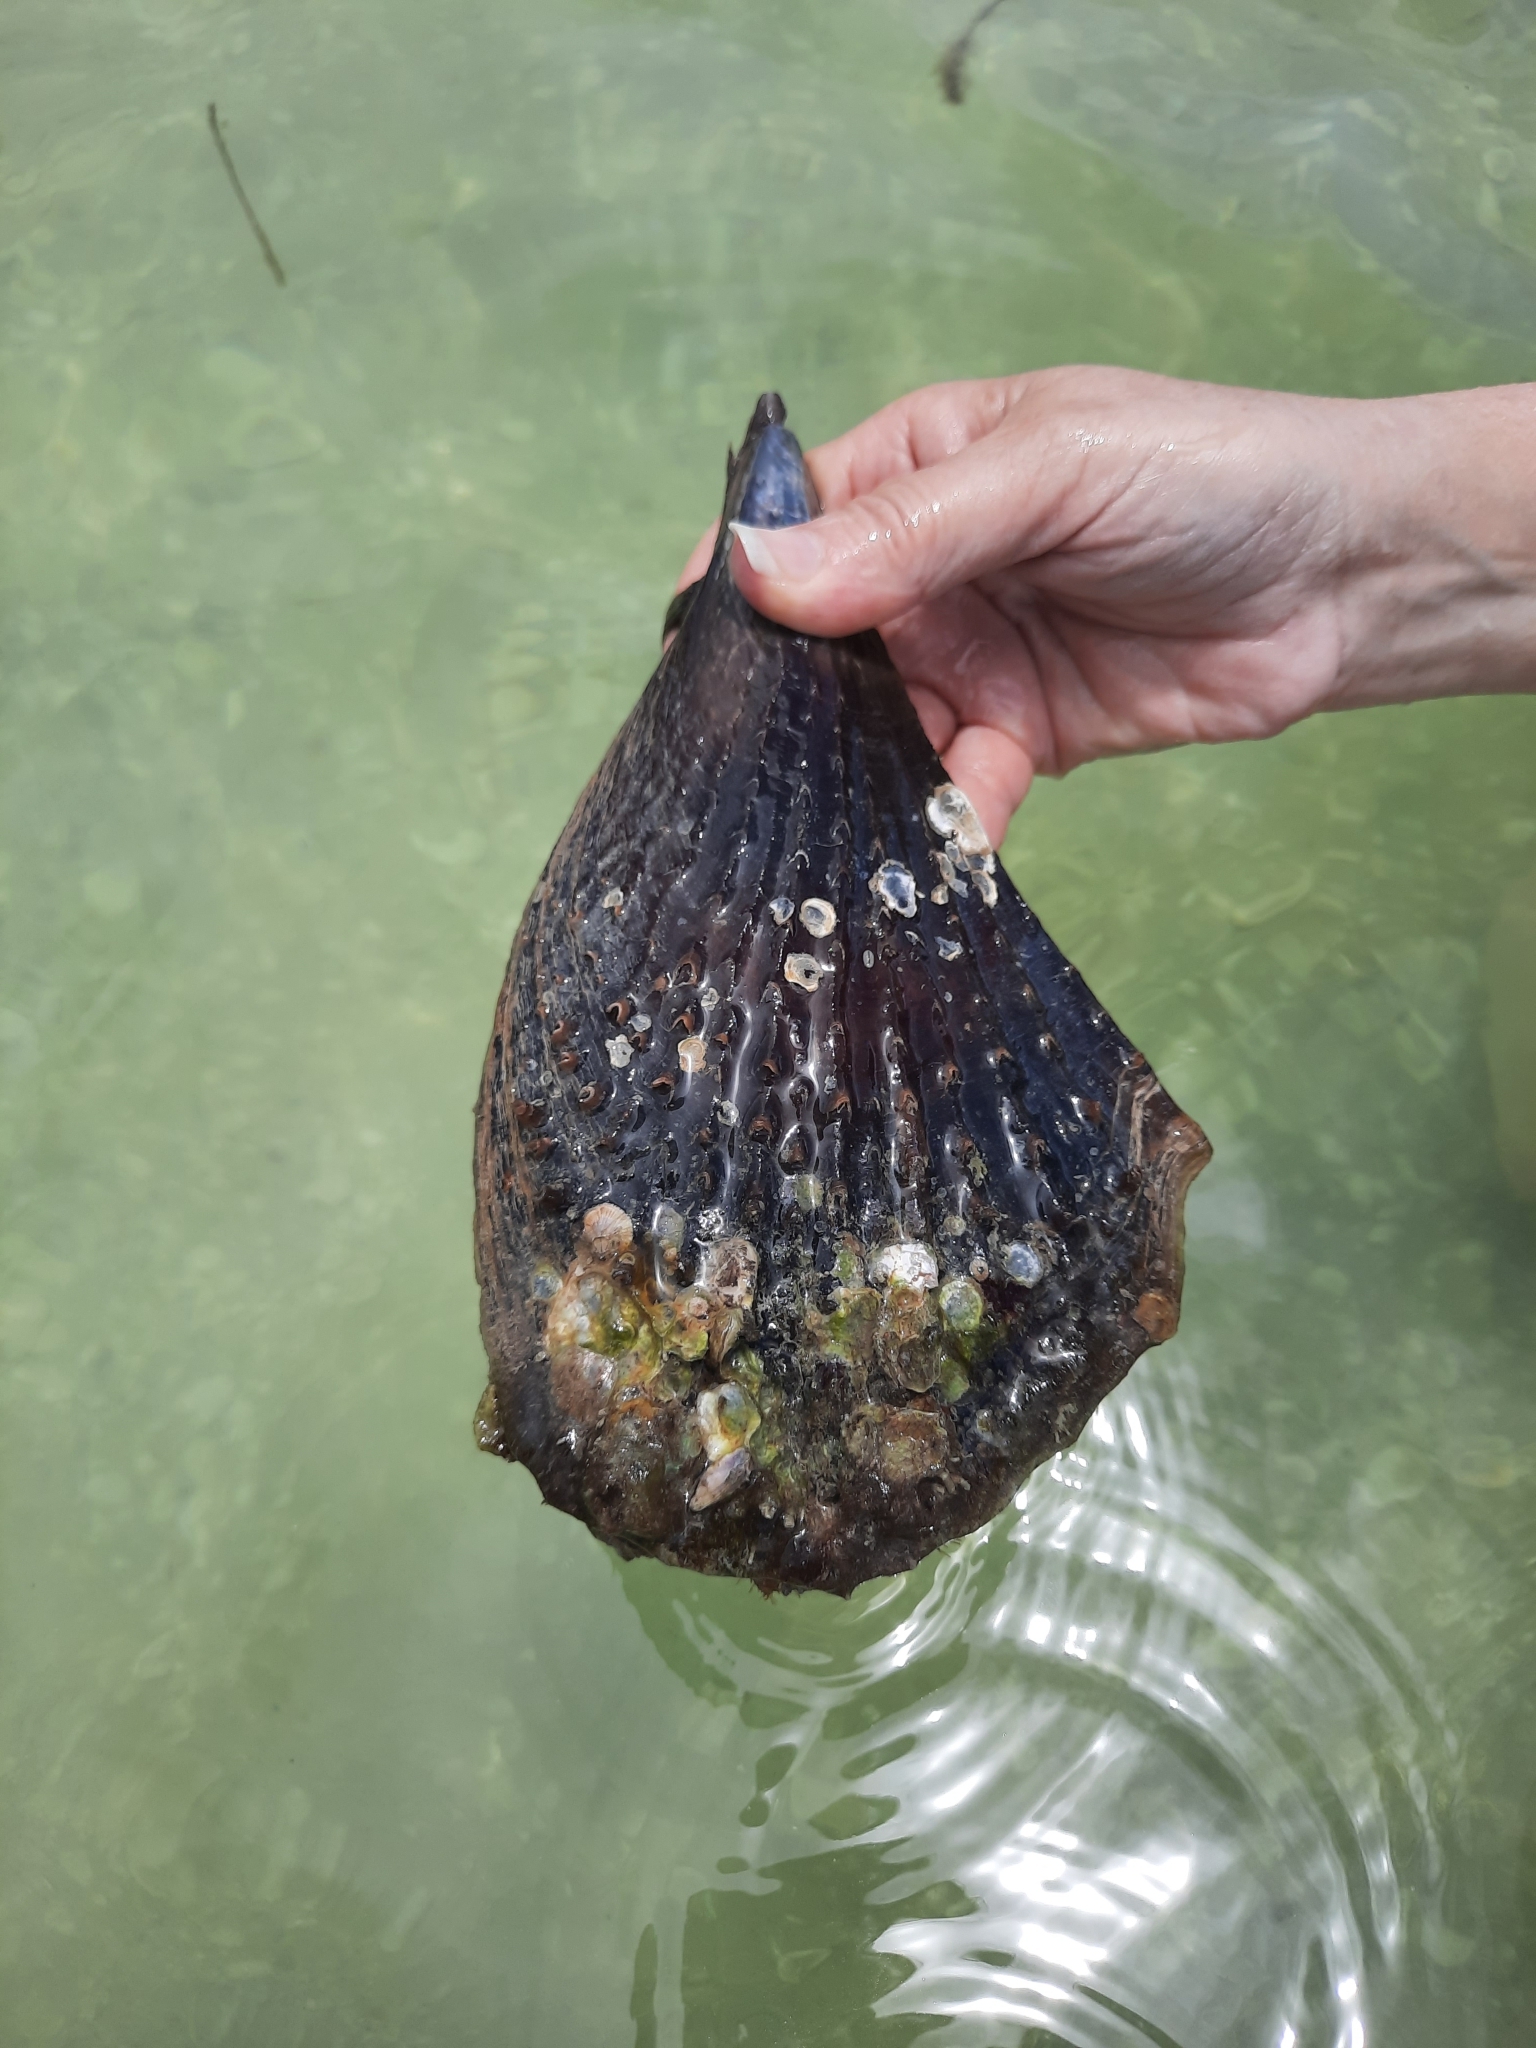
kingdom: Animalia
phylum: Mollusca
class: Bivalvia
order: Ostreida
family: Pinnidae
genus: Atrina
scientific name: Atrina rigida
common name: Stiff penshell
